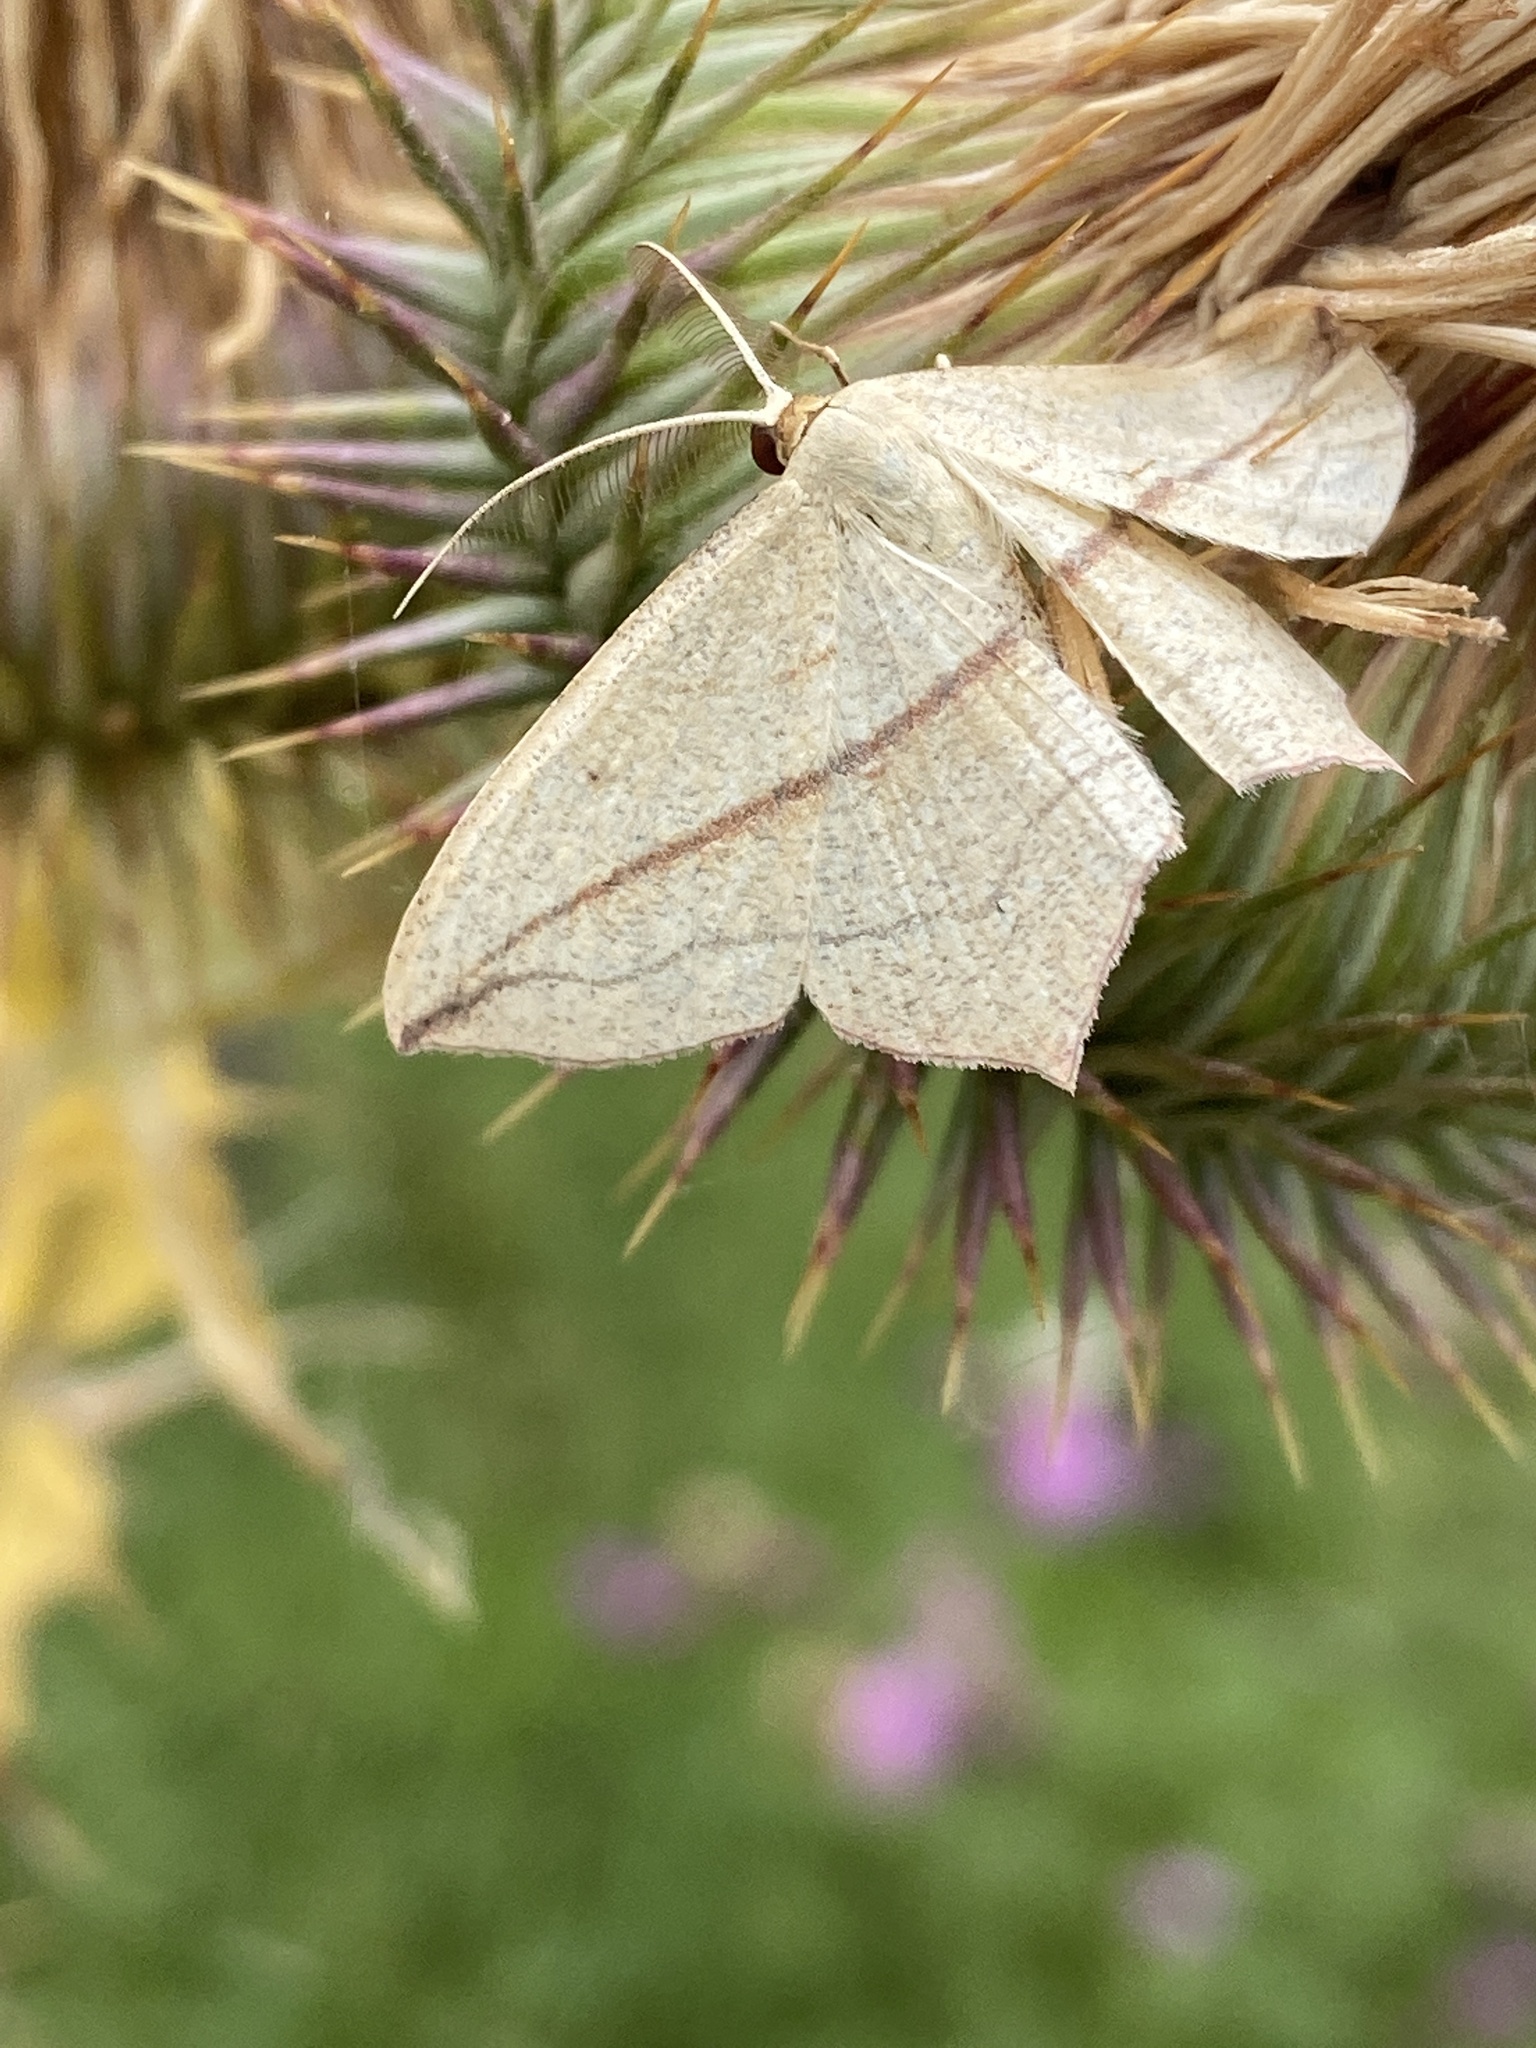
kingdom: Animalia
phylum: Arthropoda
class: Insecta
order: Lepidoptera
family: Geometridae
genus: Timandra
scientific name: Timandra comae
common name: Blood-vein
